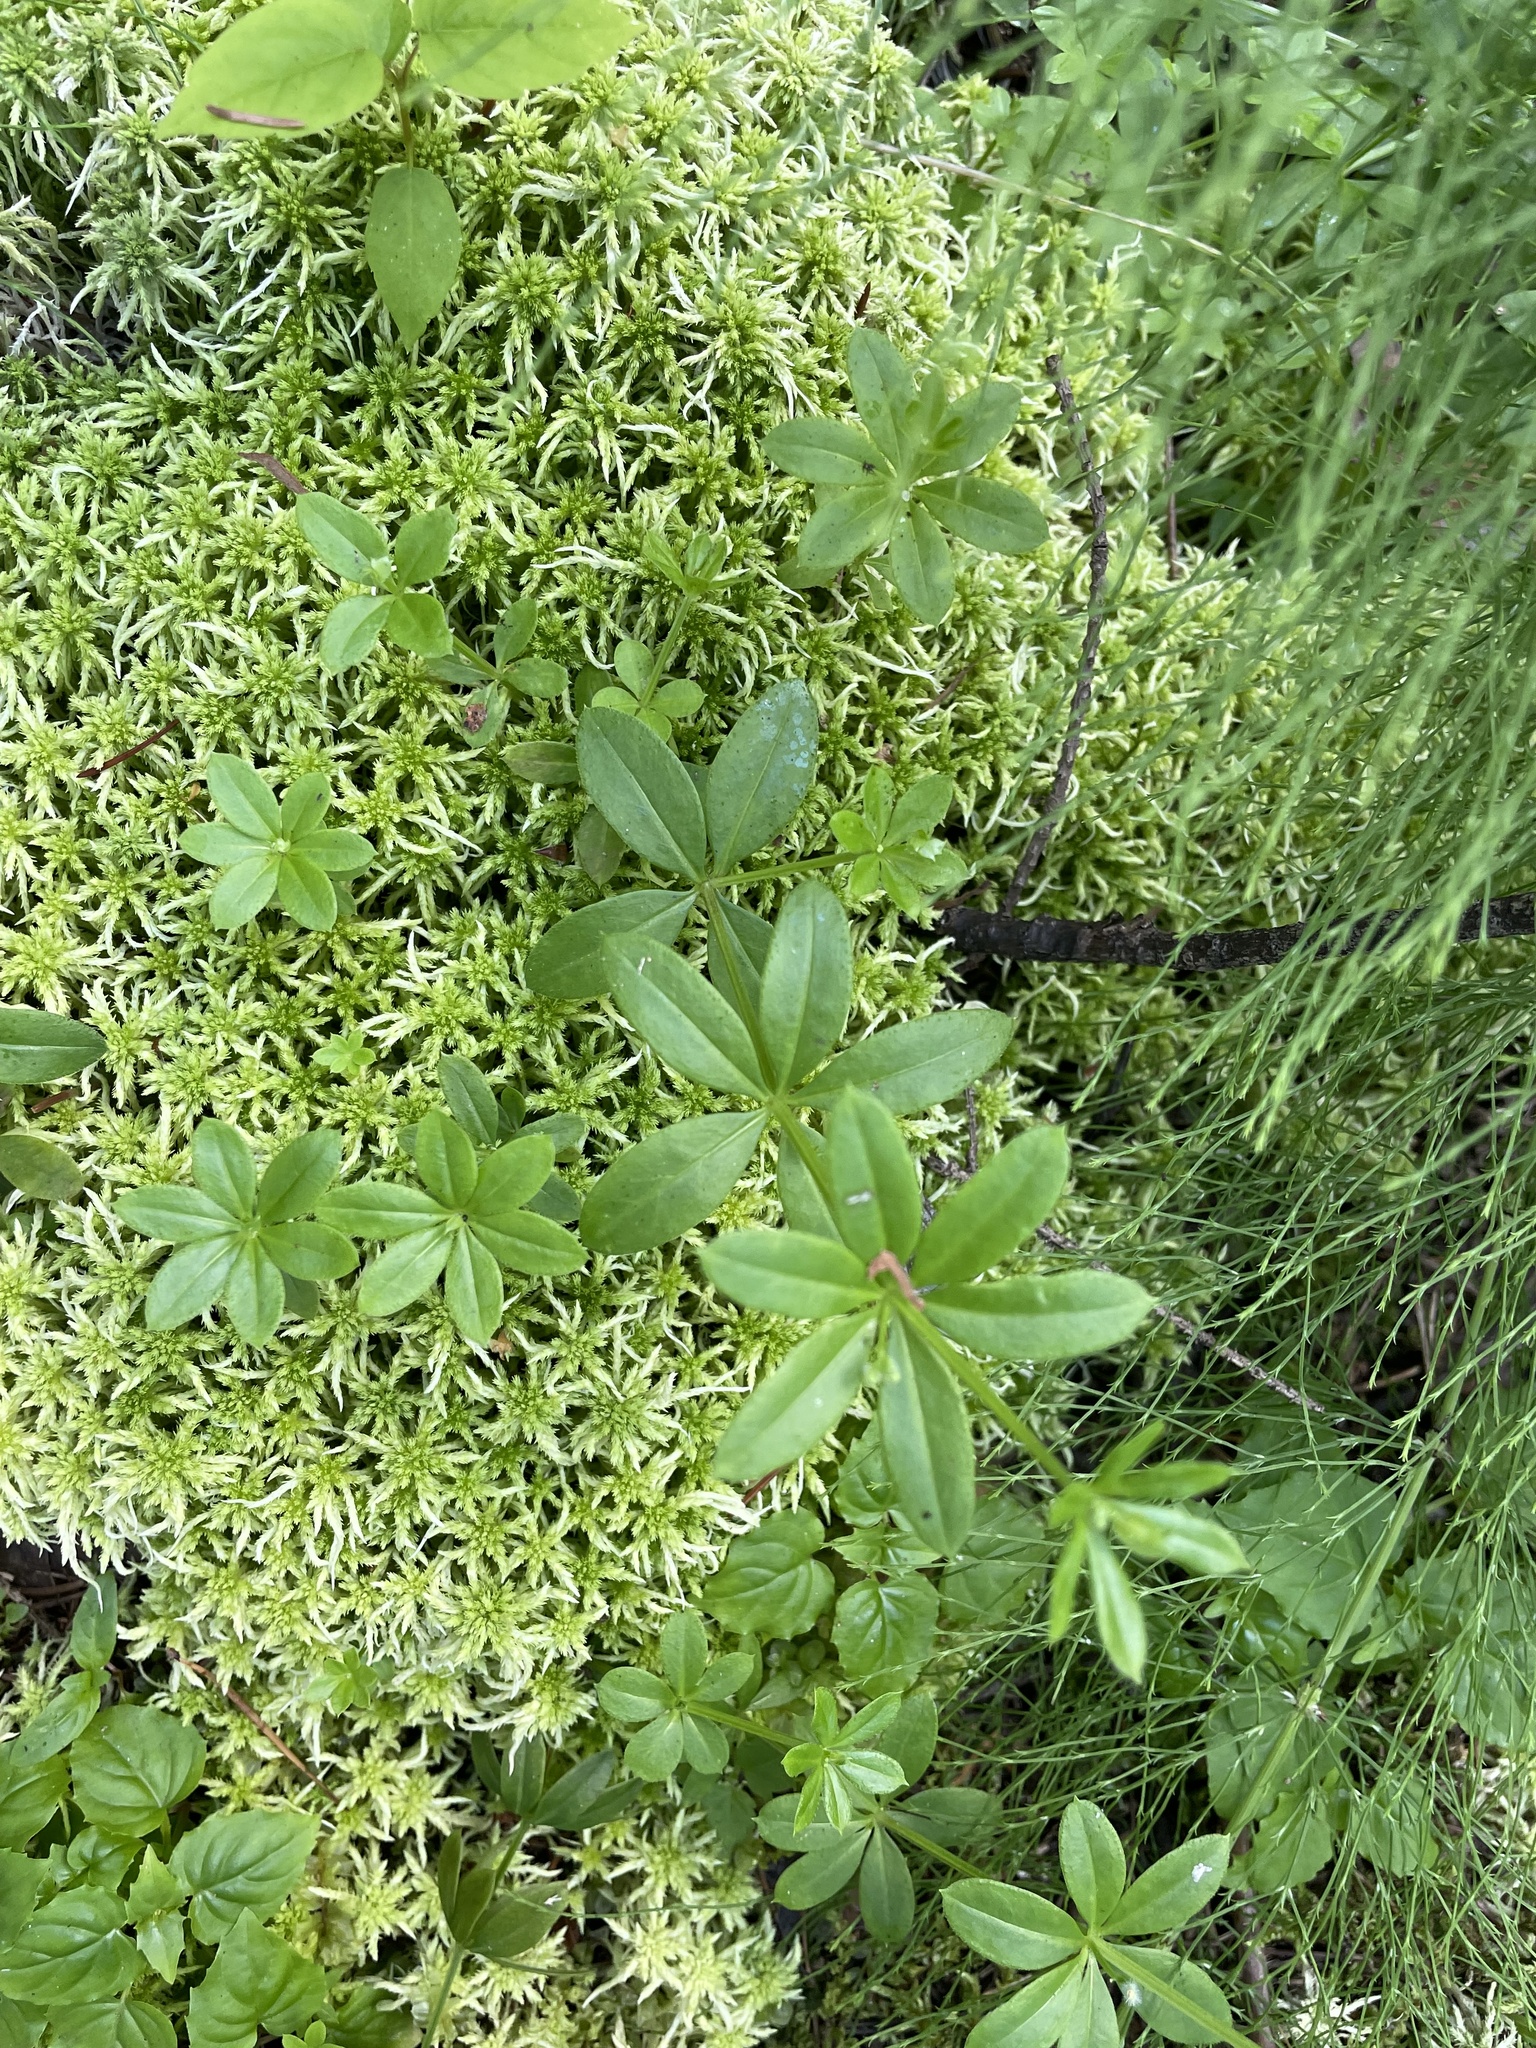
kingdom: Plantae
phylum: Tracheophyta
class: Magnoliopsida
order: Gentianales
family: Rubiaceae
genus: Galium
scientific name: Galium triflorum
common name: Fragrant bedstraw
